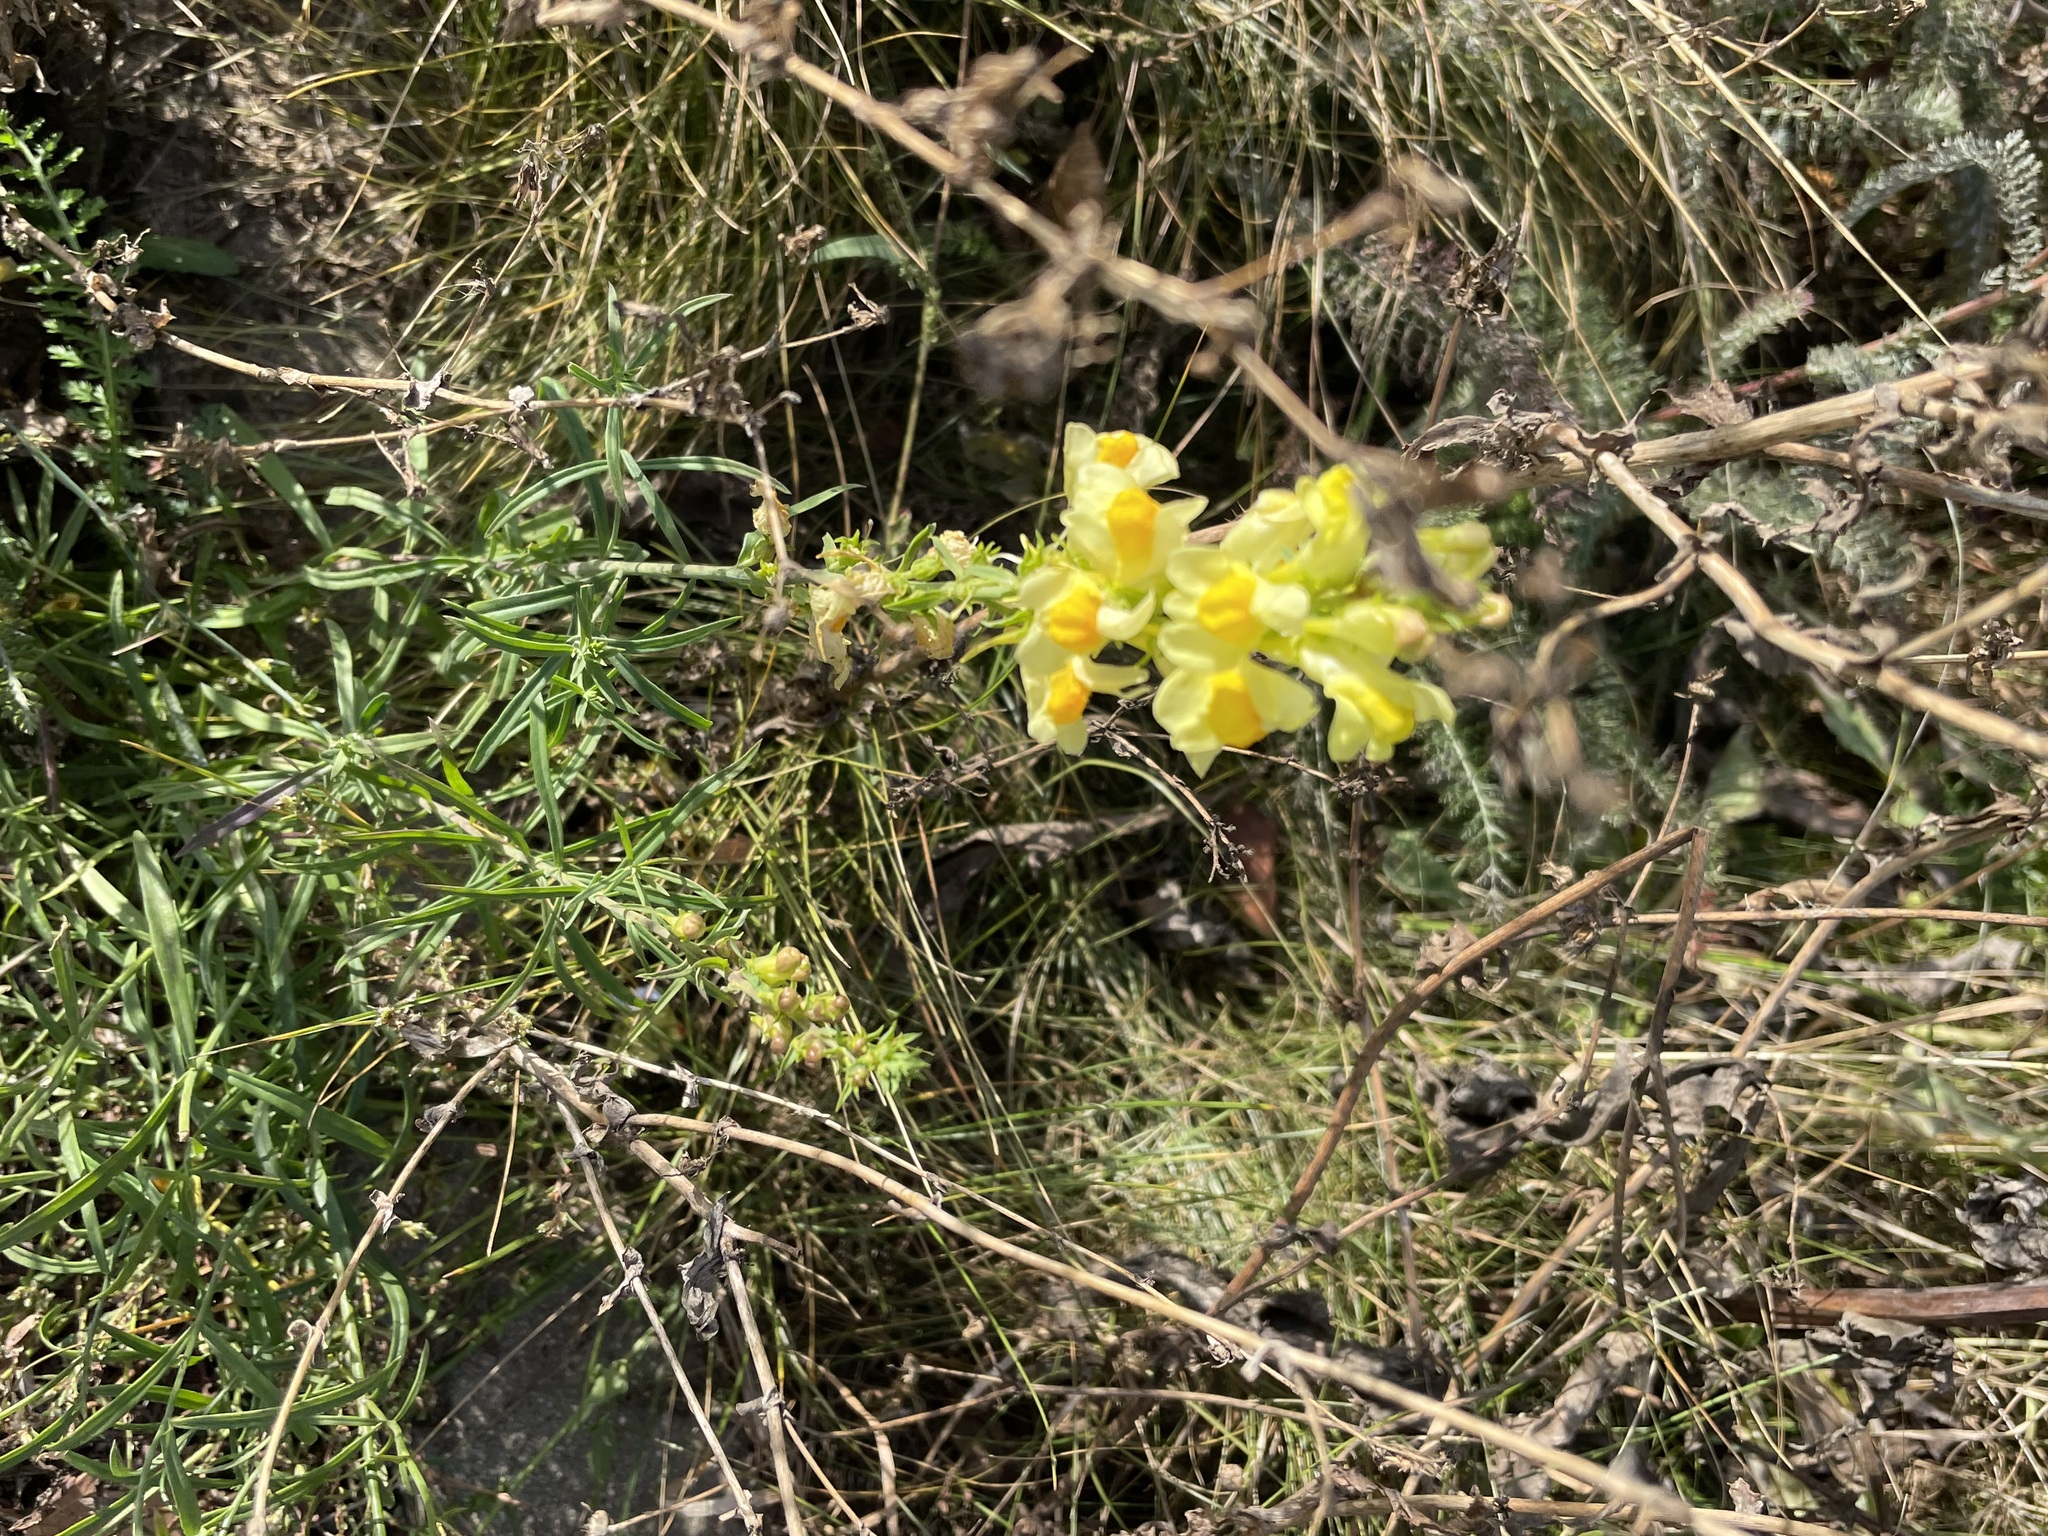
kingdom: Plantae
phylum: Tracheophyta
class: Magnoliopsida
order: Lamiales
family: Plantaginaceae
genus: Linaria
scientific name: Linaria vulgaris
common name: Butter and eggs
